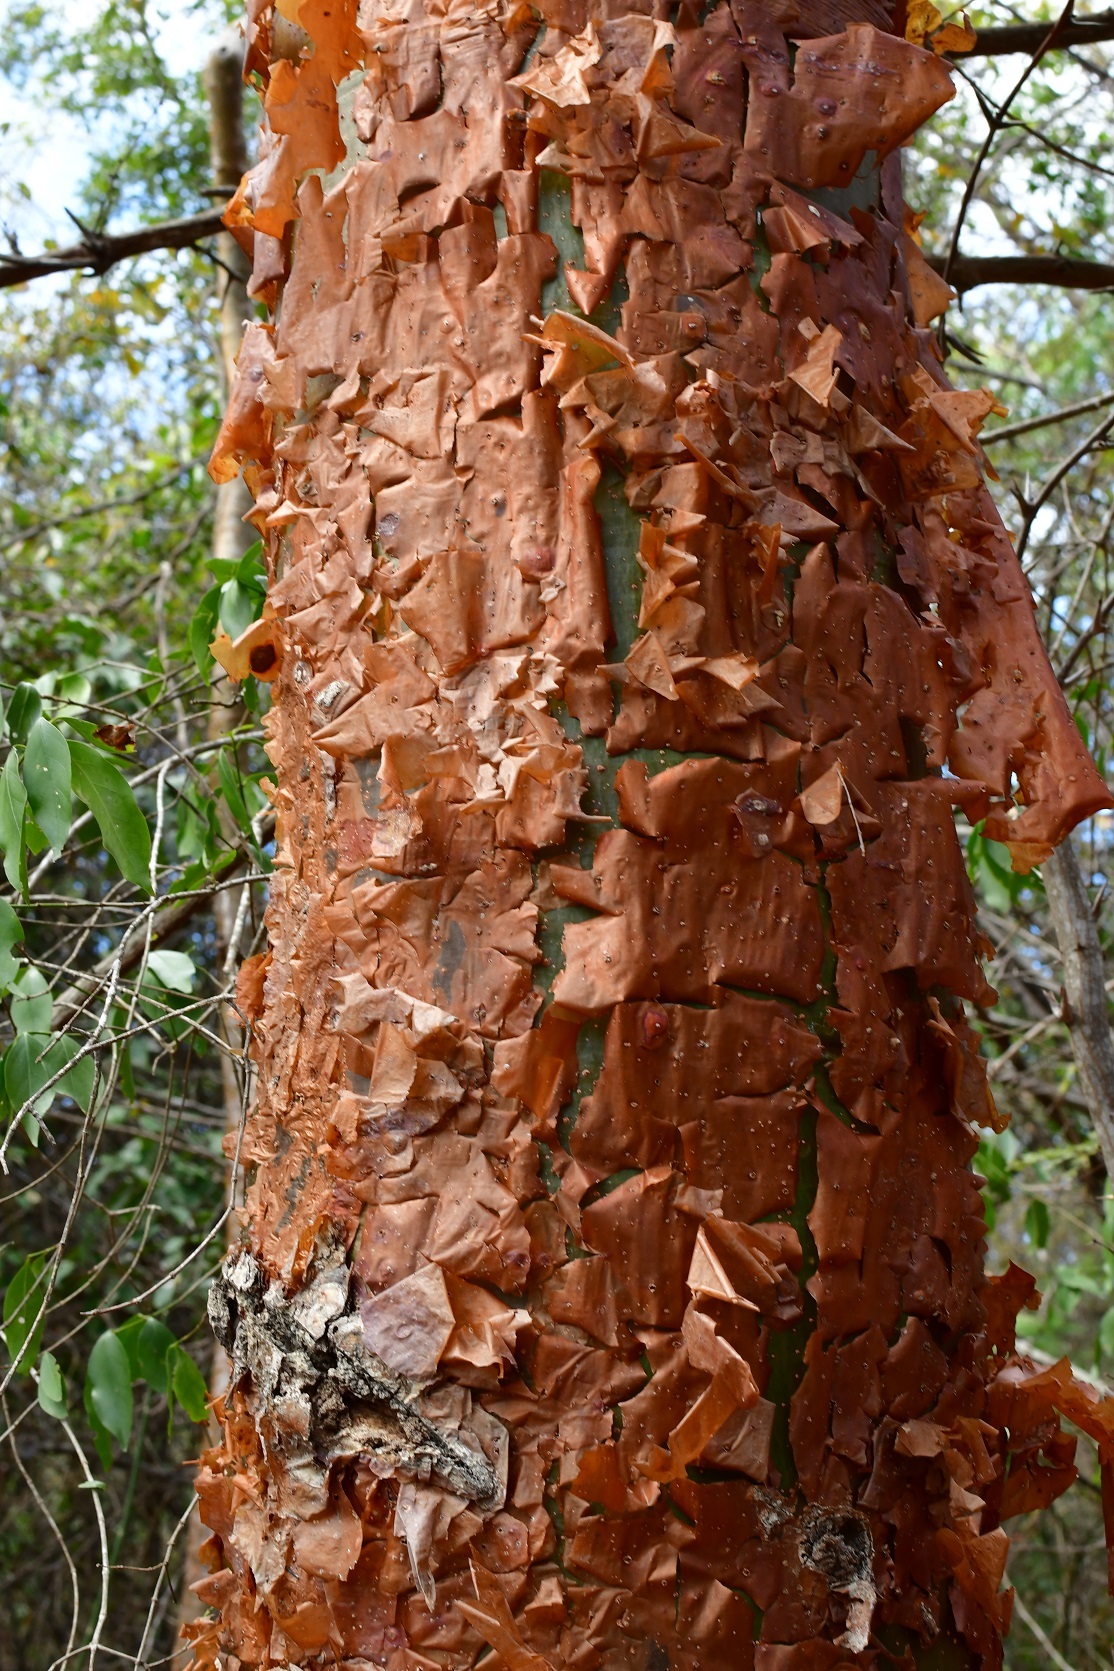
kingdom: Plantae
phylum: Tracheophyta
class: Magnoliopsida
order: Sapindales
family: Burseraceae
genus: Bursera
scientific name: Bursera simaruba
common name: Turpentine tree
